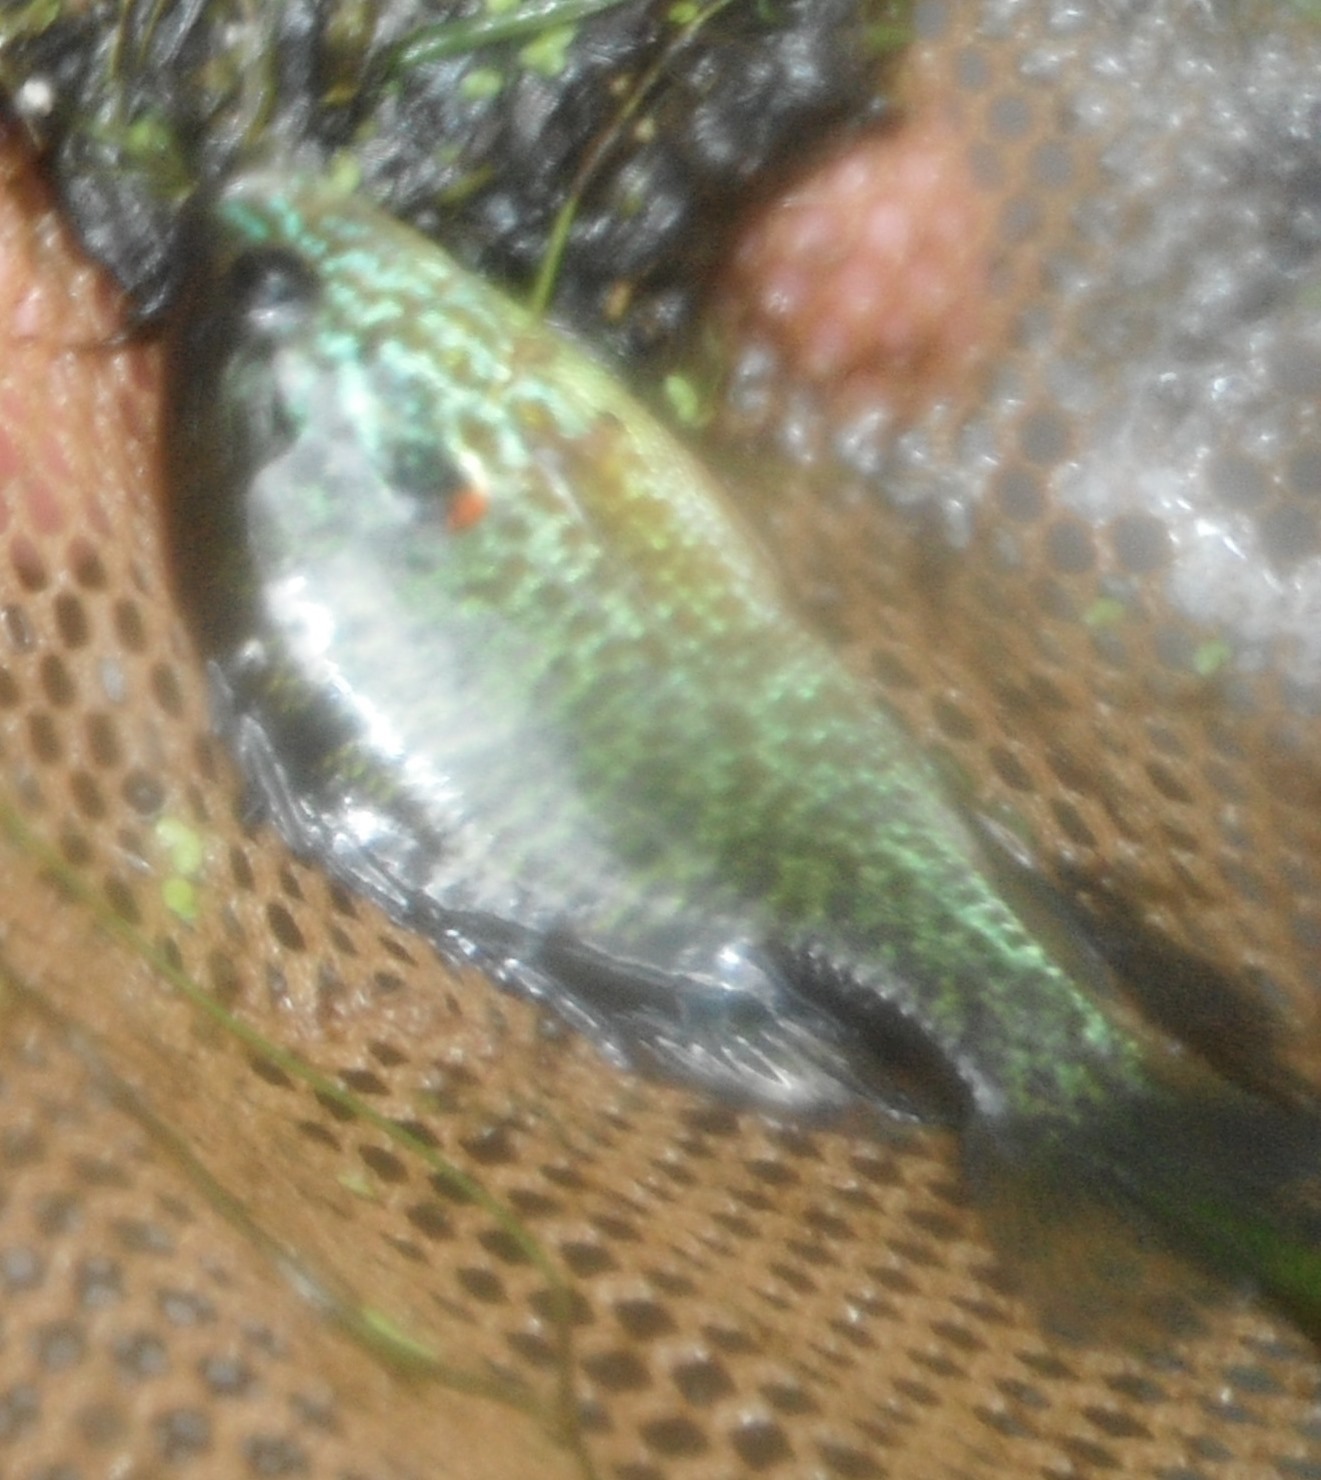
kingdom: Animalia
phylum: Chordata
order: Perciformes
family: Centrarchidae
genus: Lepomis
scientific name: Lepomis gibbosus
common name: Pumpkinseed
